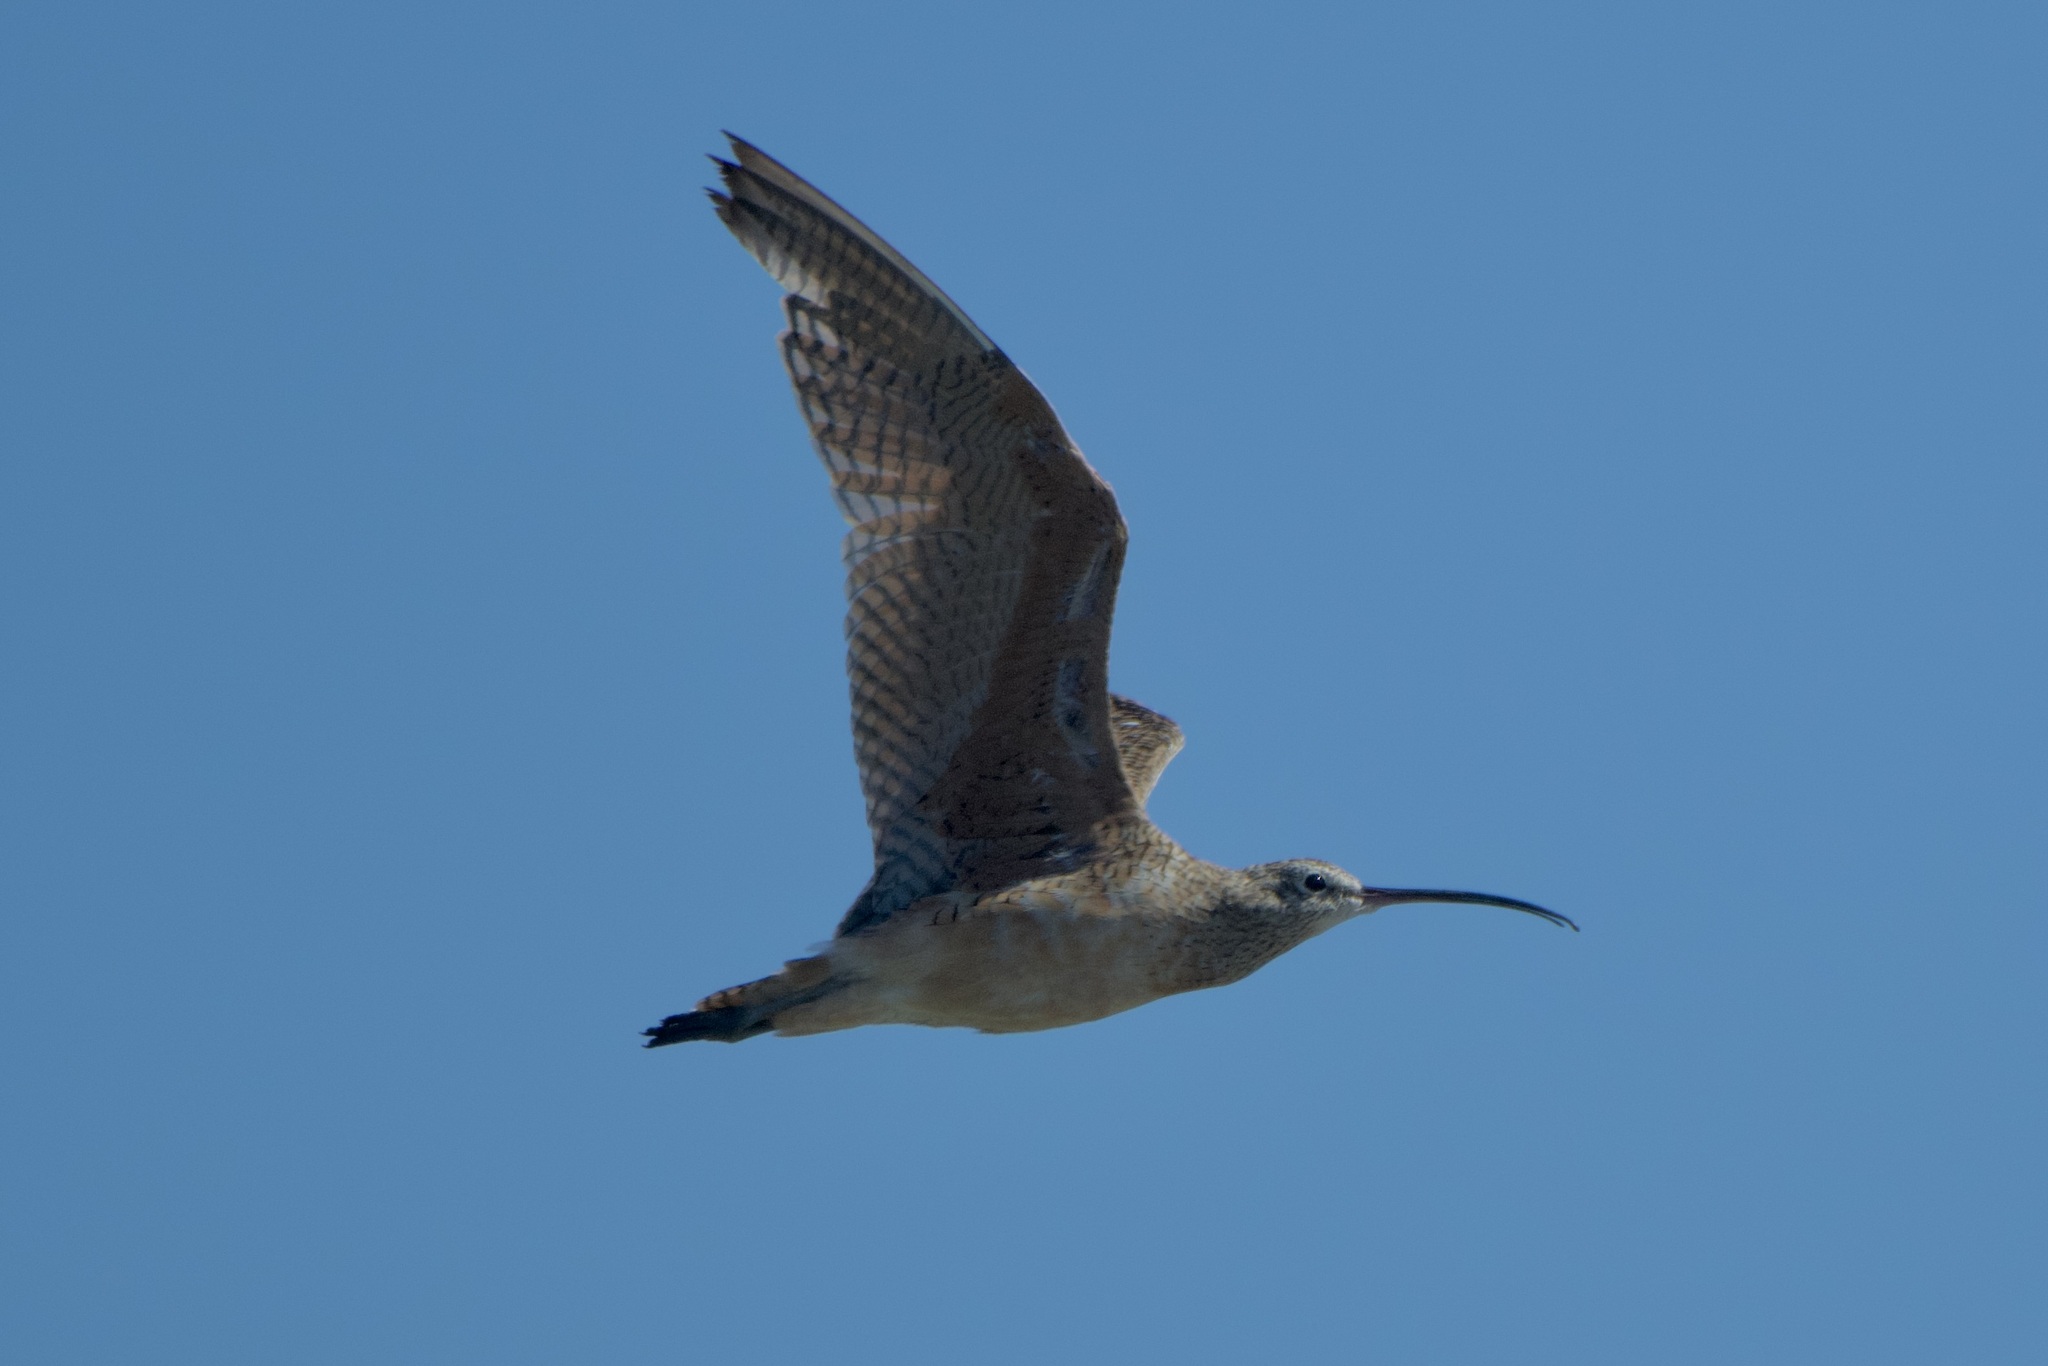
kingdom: Animalia
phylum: Chordata
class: Aves
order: Charadriiformes
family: Scolopacidae
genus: Numenius
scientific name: Numenius americanus
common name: Long-billed curlew
